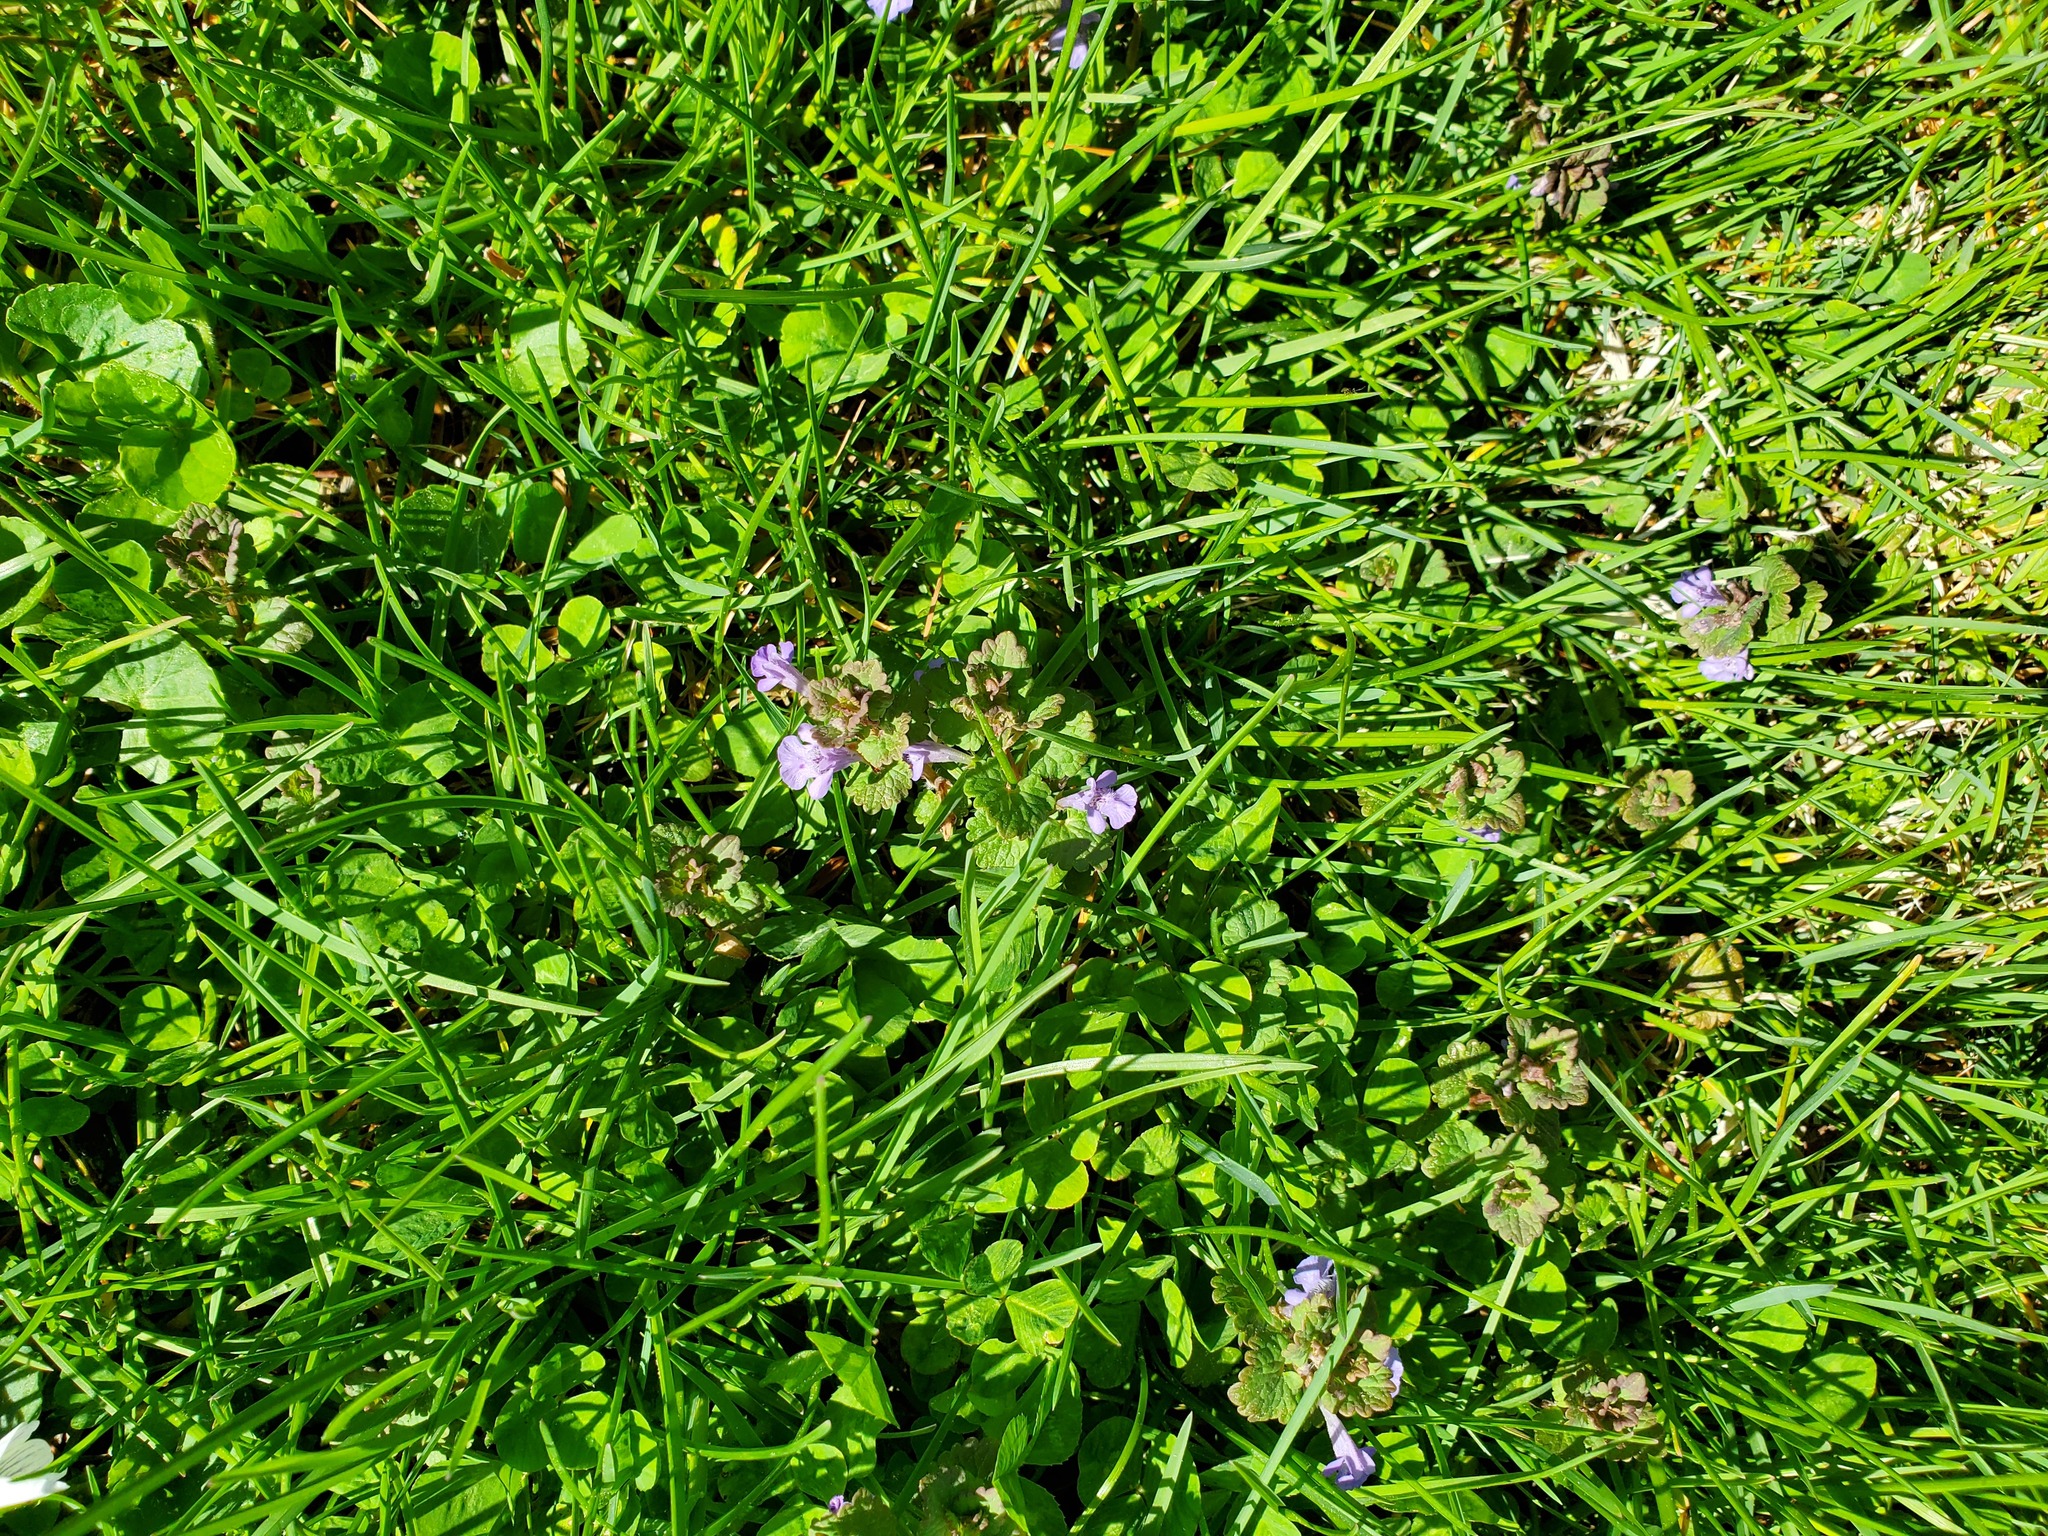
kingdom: Plantae
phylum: Tracheophyta
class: Magnoliopsida
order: Lamiales
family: Lamiaceae
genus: Glechoma
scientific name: Glechoma hederacea
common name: Ground ivy
